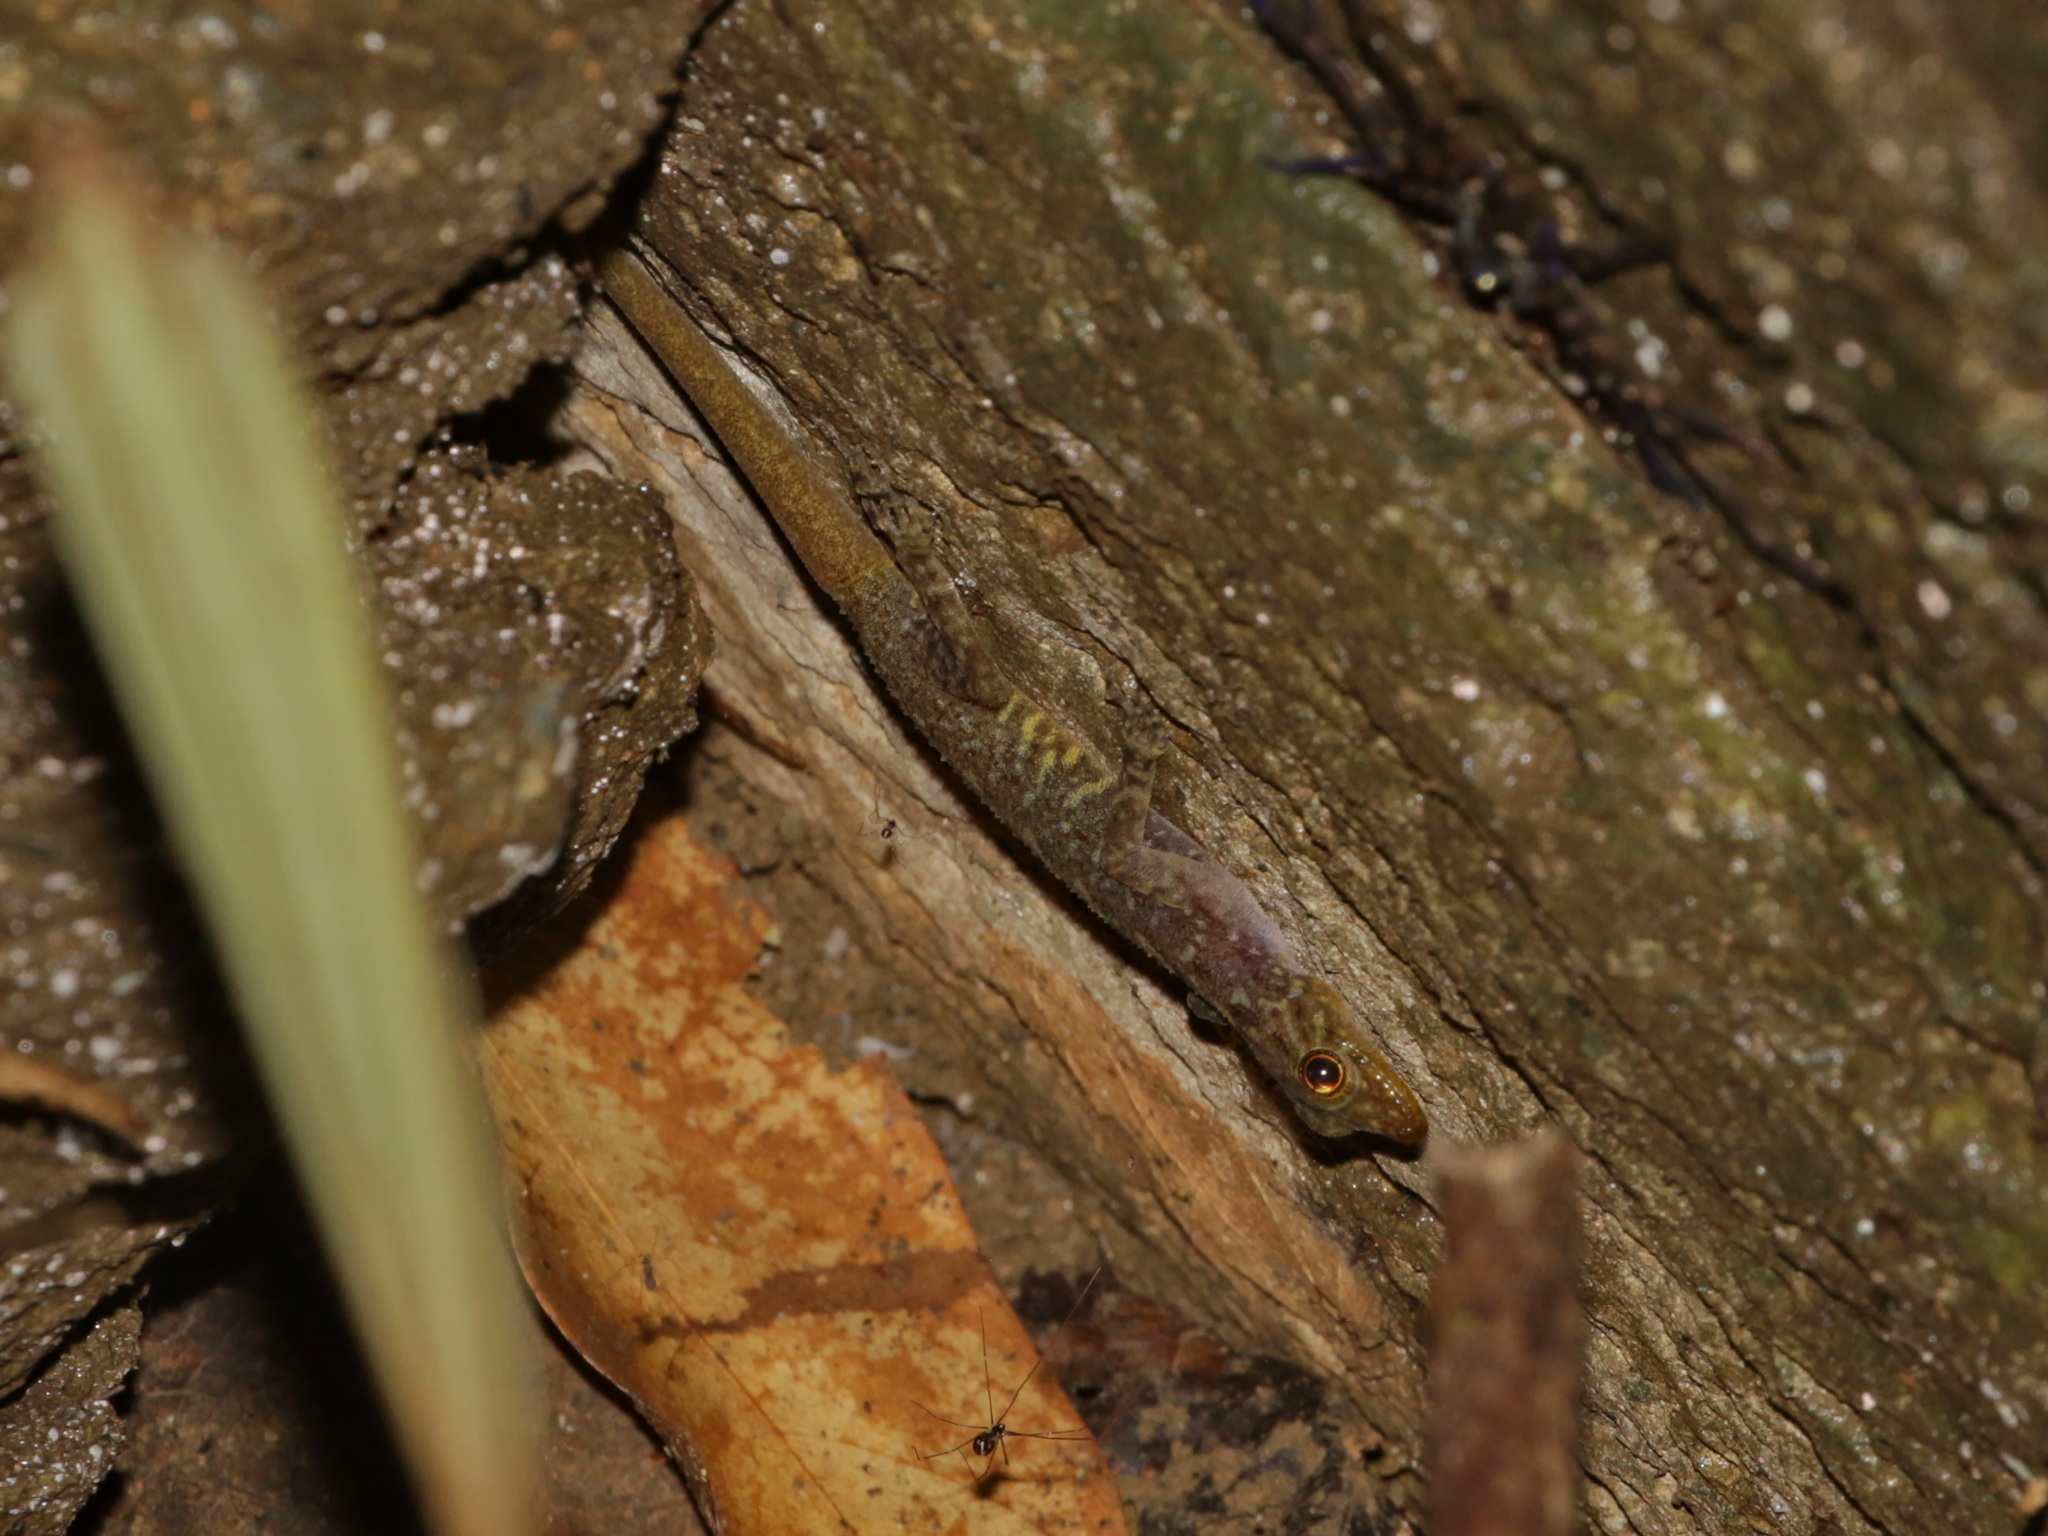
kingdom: Animalia
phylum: Chordata
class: Squamata
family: Gekkonidae
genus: Cnemaspis
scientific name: Cnemaspis omari
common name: Omar’s rock gecko
